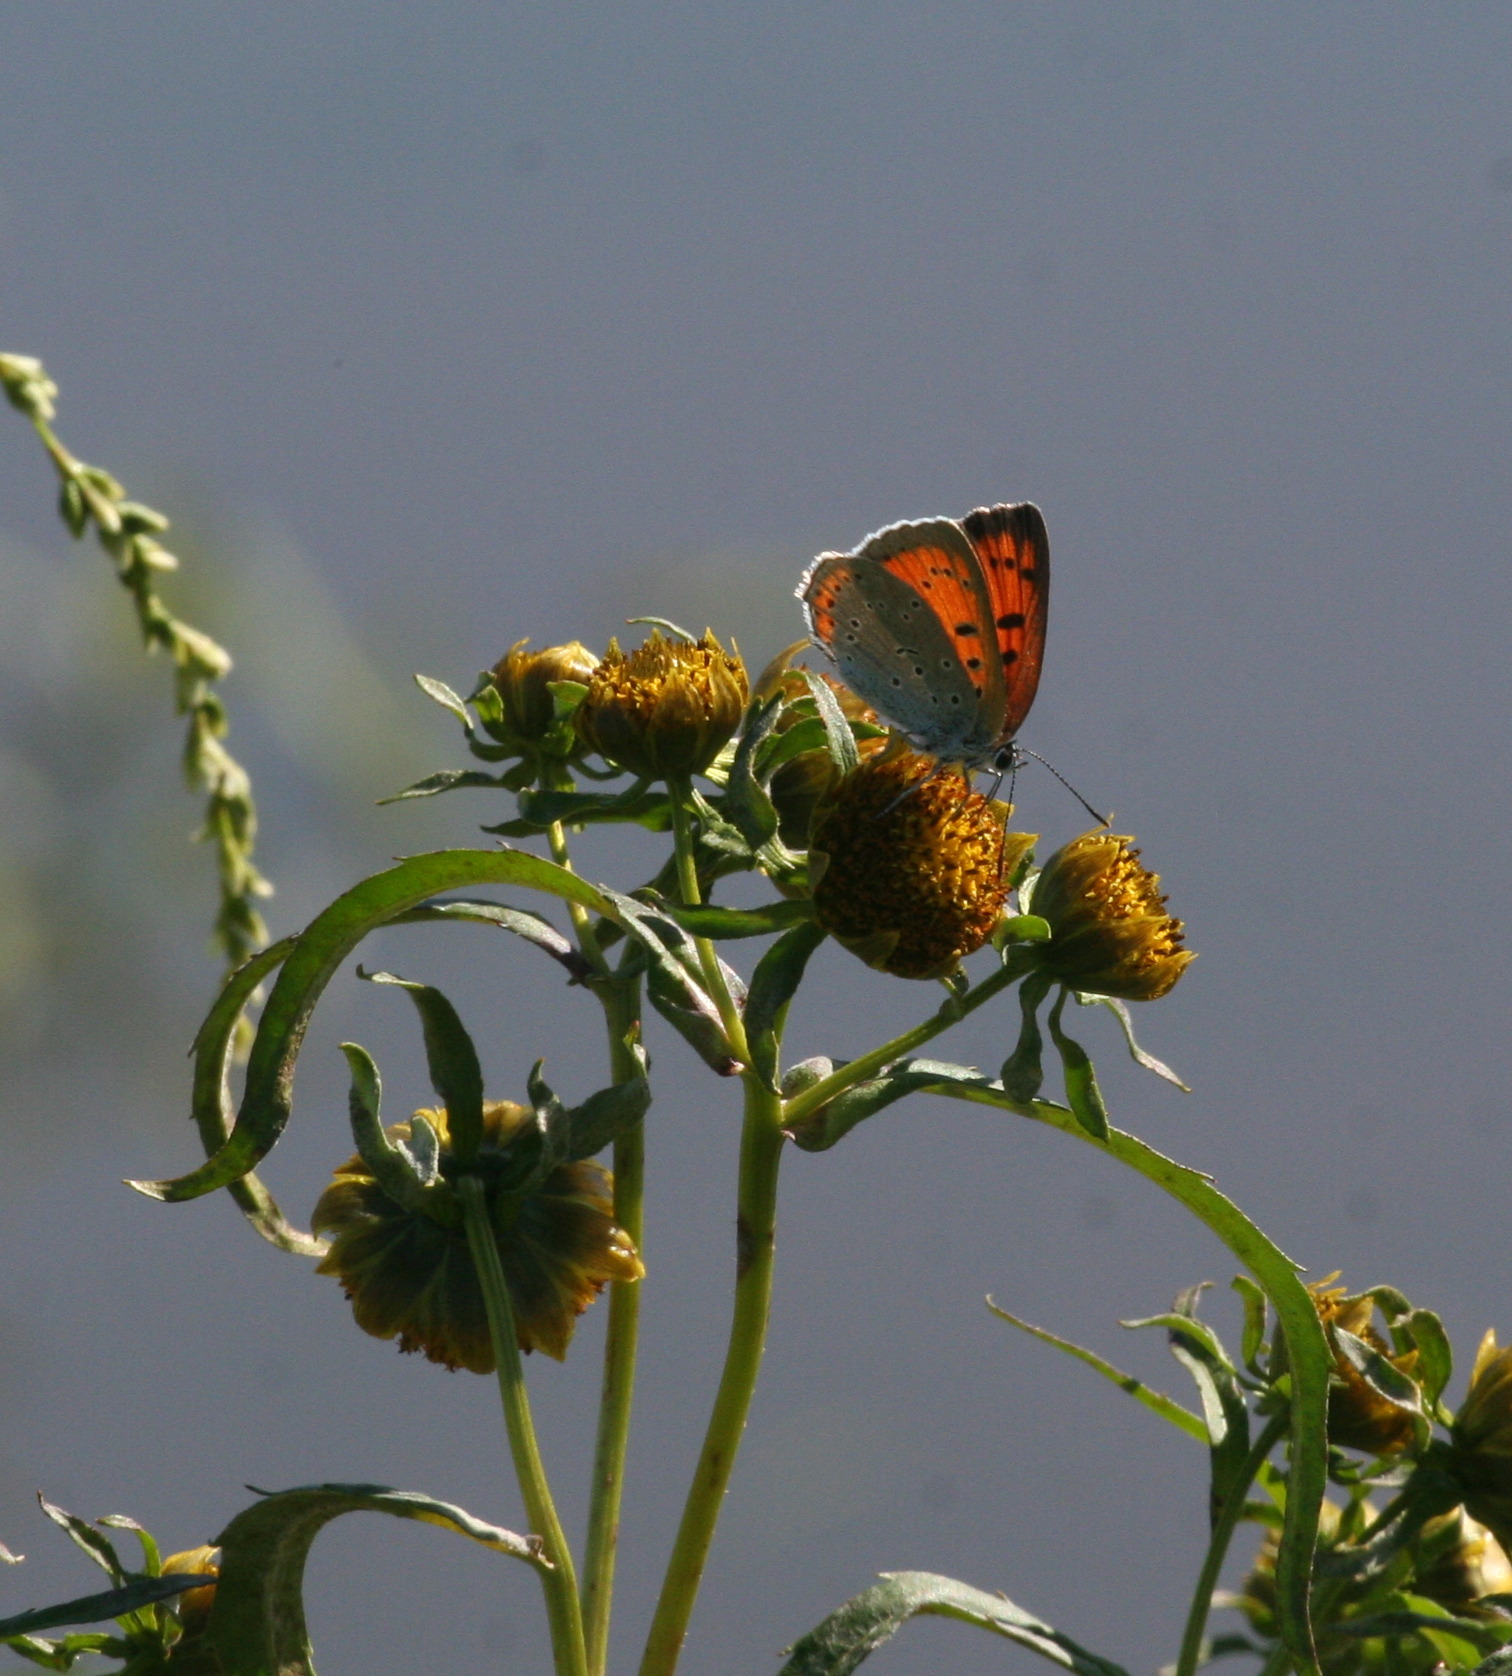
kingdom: Animalia
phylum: Arthropoda
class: Insecta
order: Lepidoptera
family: Lycaenidae
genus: Lycaena
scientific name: Lycaena dispar
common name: Large copper
